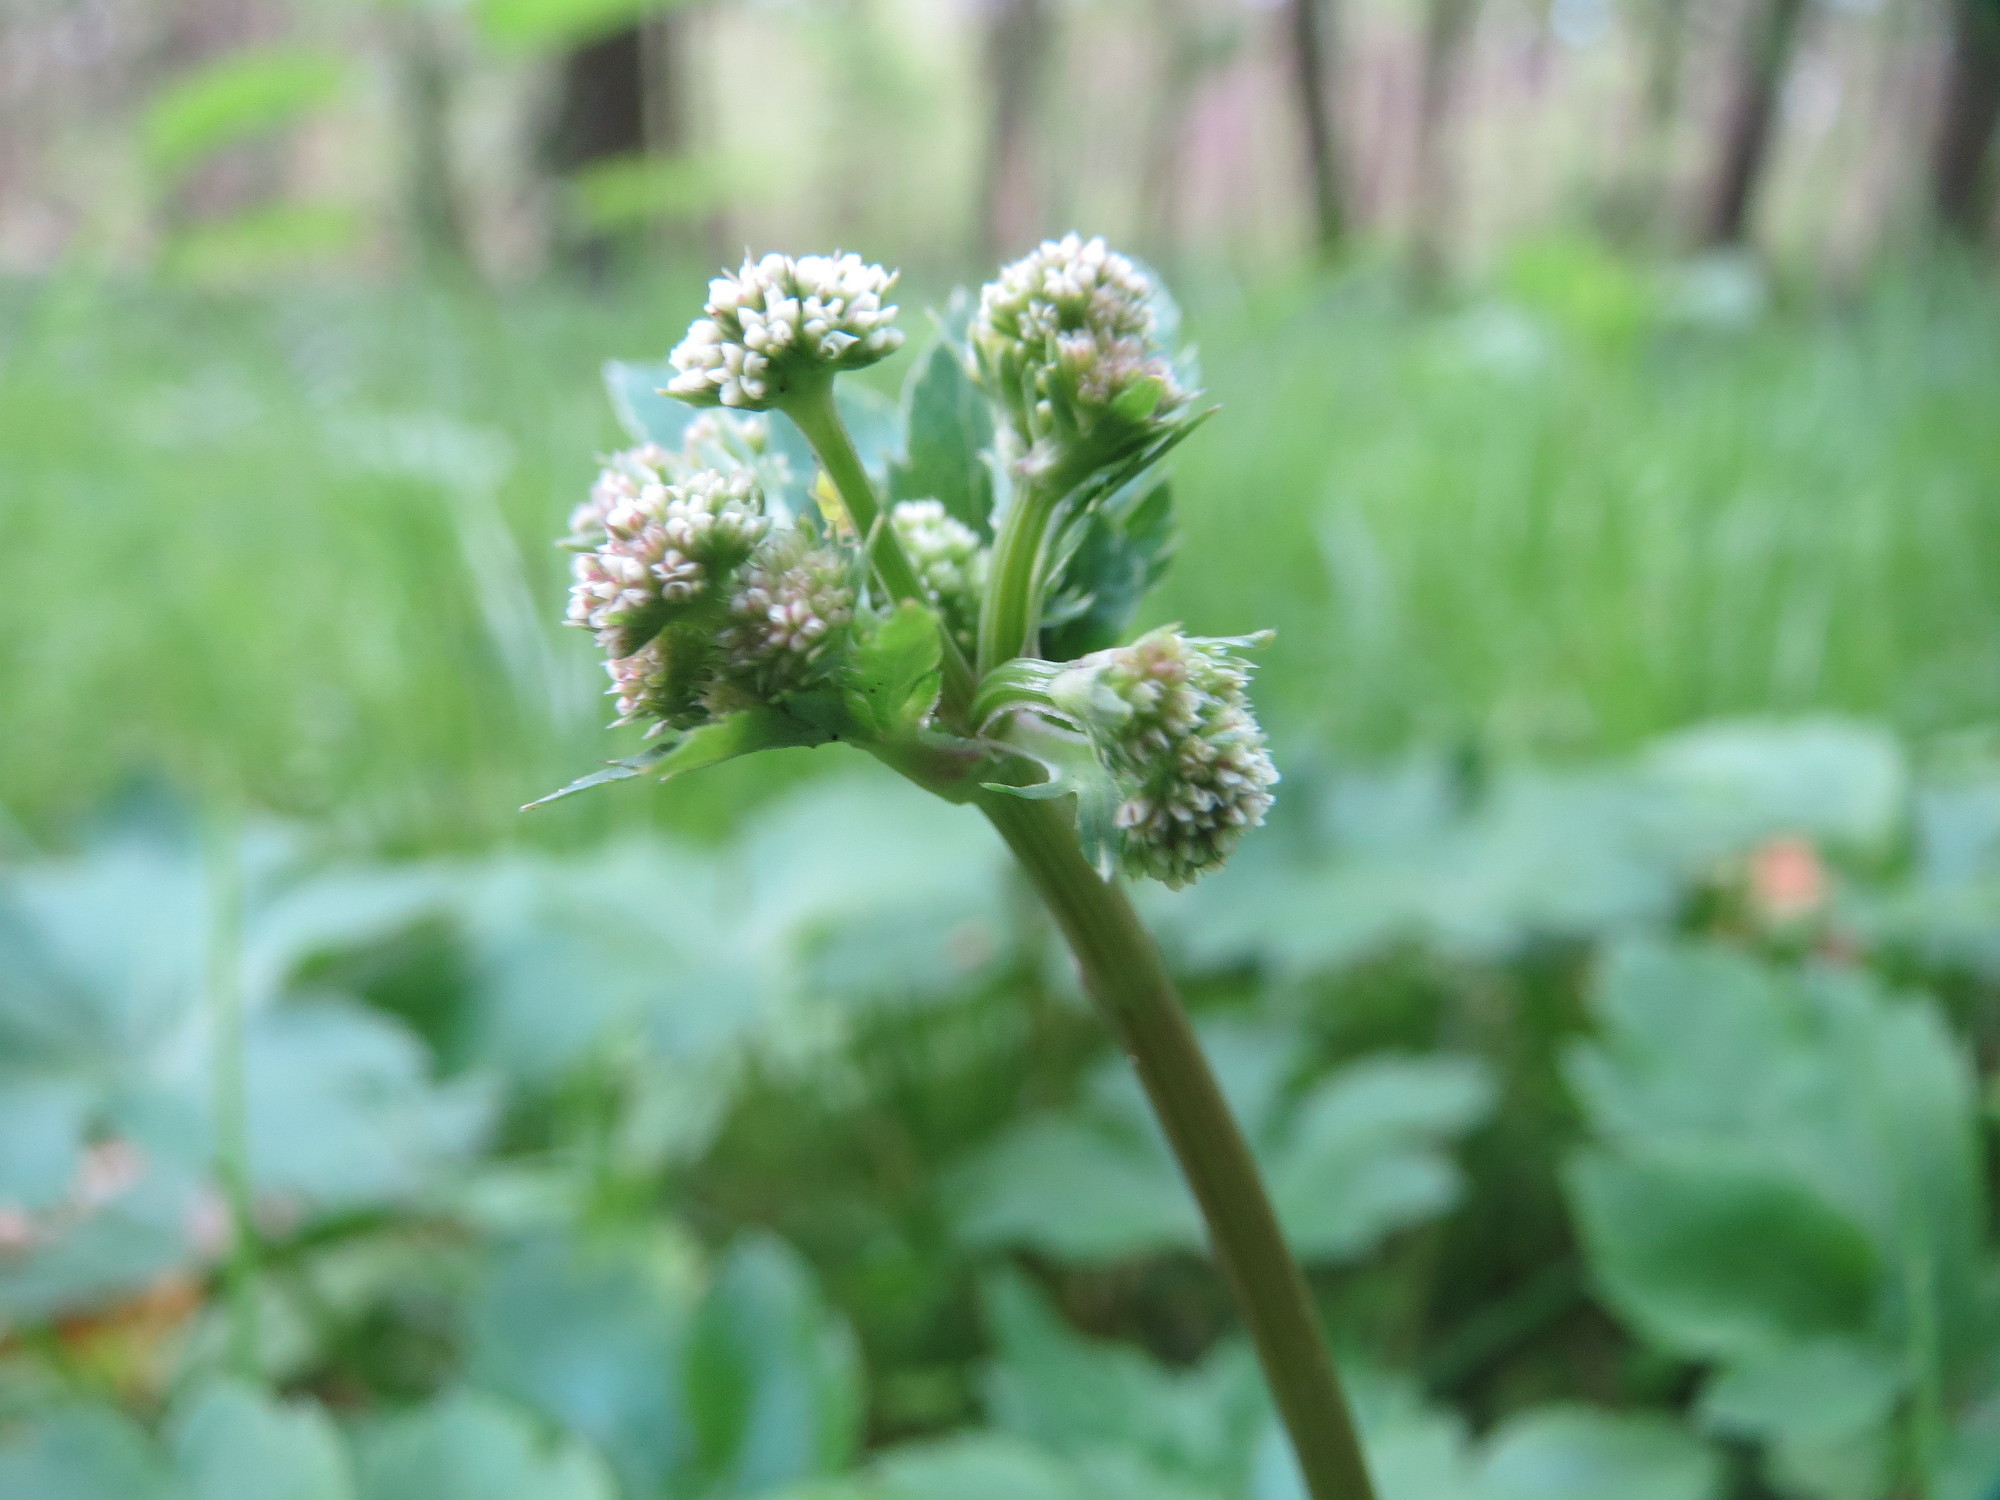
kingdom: Plantae
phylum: Tracheophyta
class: Magnoliopsida
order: Apiales
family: Apiaceae
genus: Sanicula
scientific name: Sanicula europaea
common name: Sanicle
